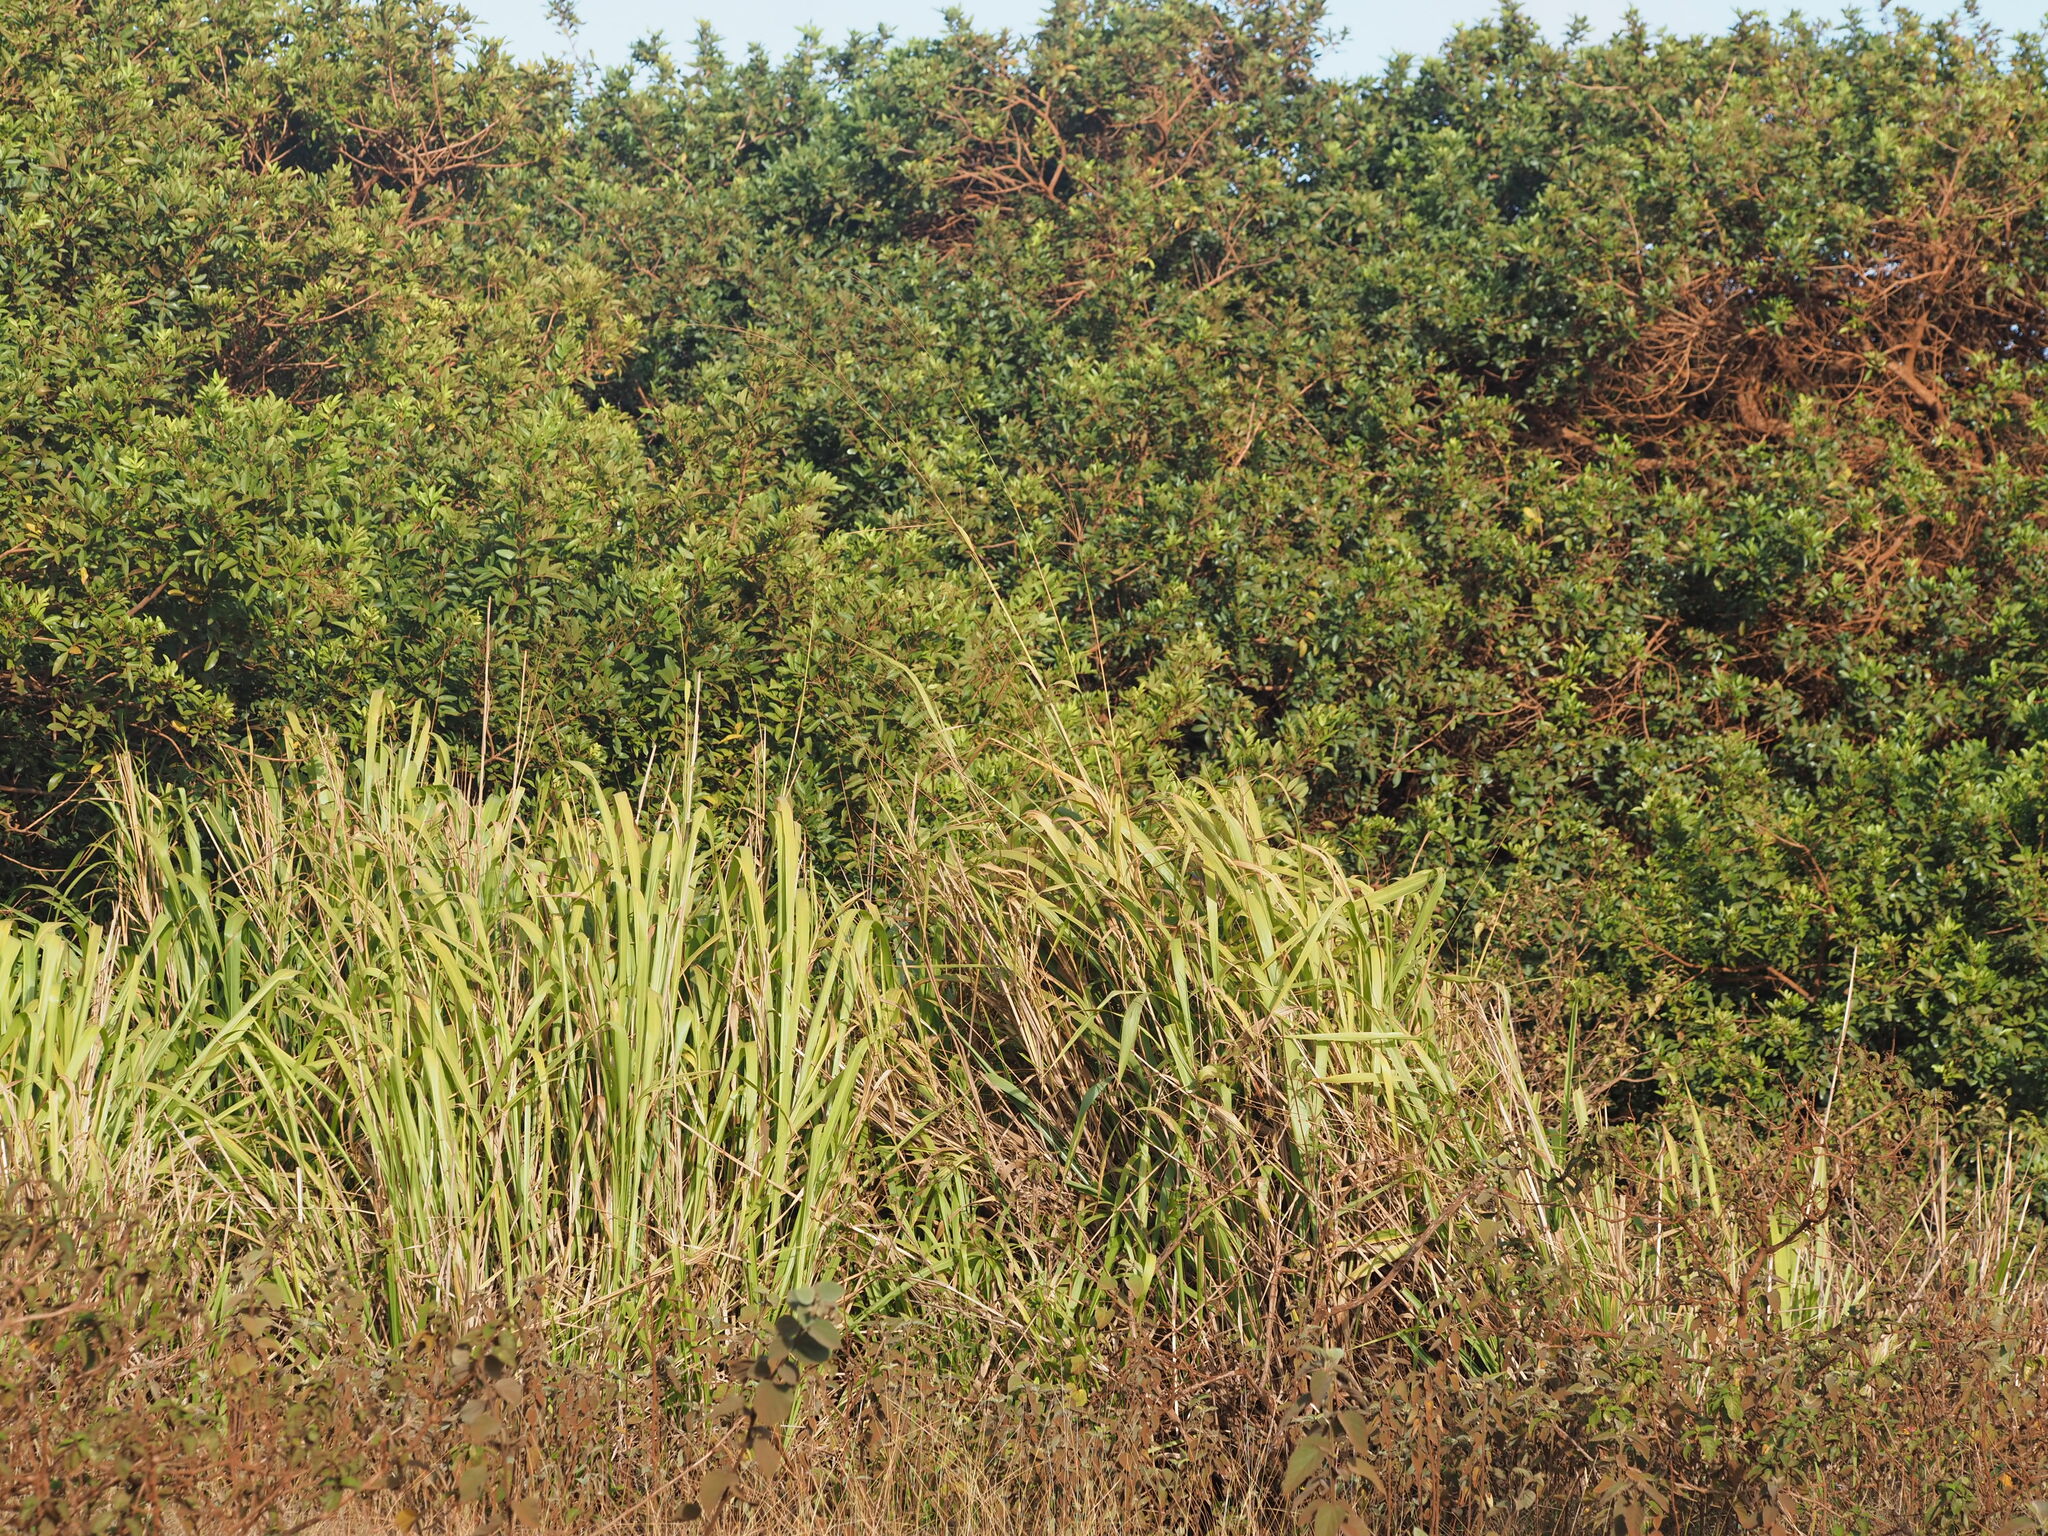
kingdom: Plantae
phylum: Tracheophyta
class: Magnoliopsida
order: Sapindales
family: Anacardiaceae
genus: Schinus
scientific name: Schinus terebinthifolia
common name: Brazilian peppertree
